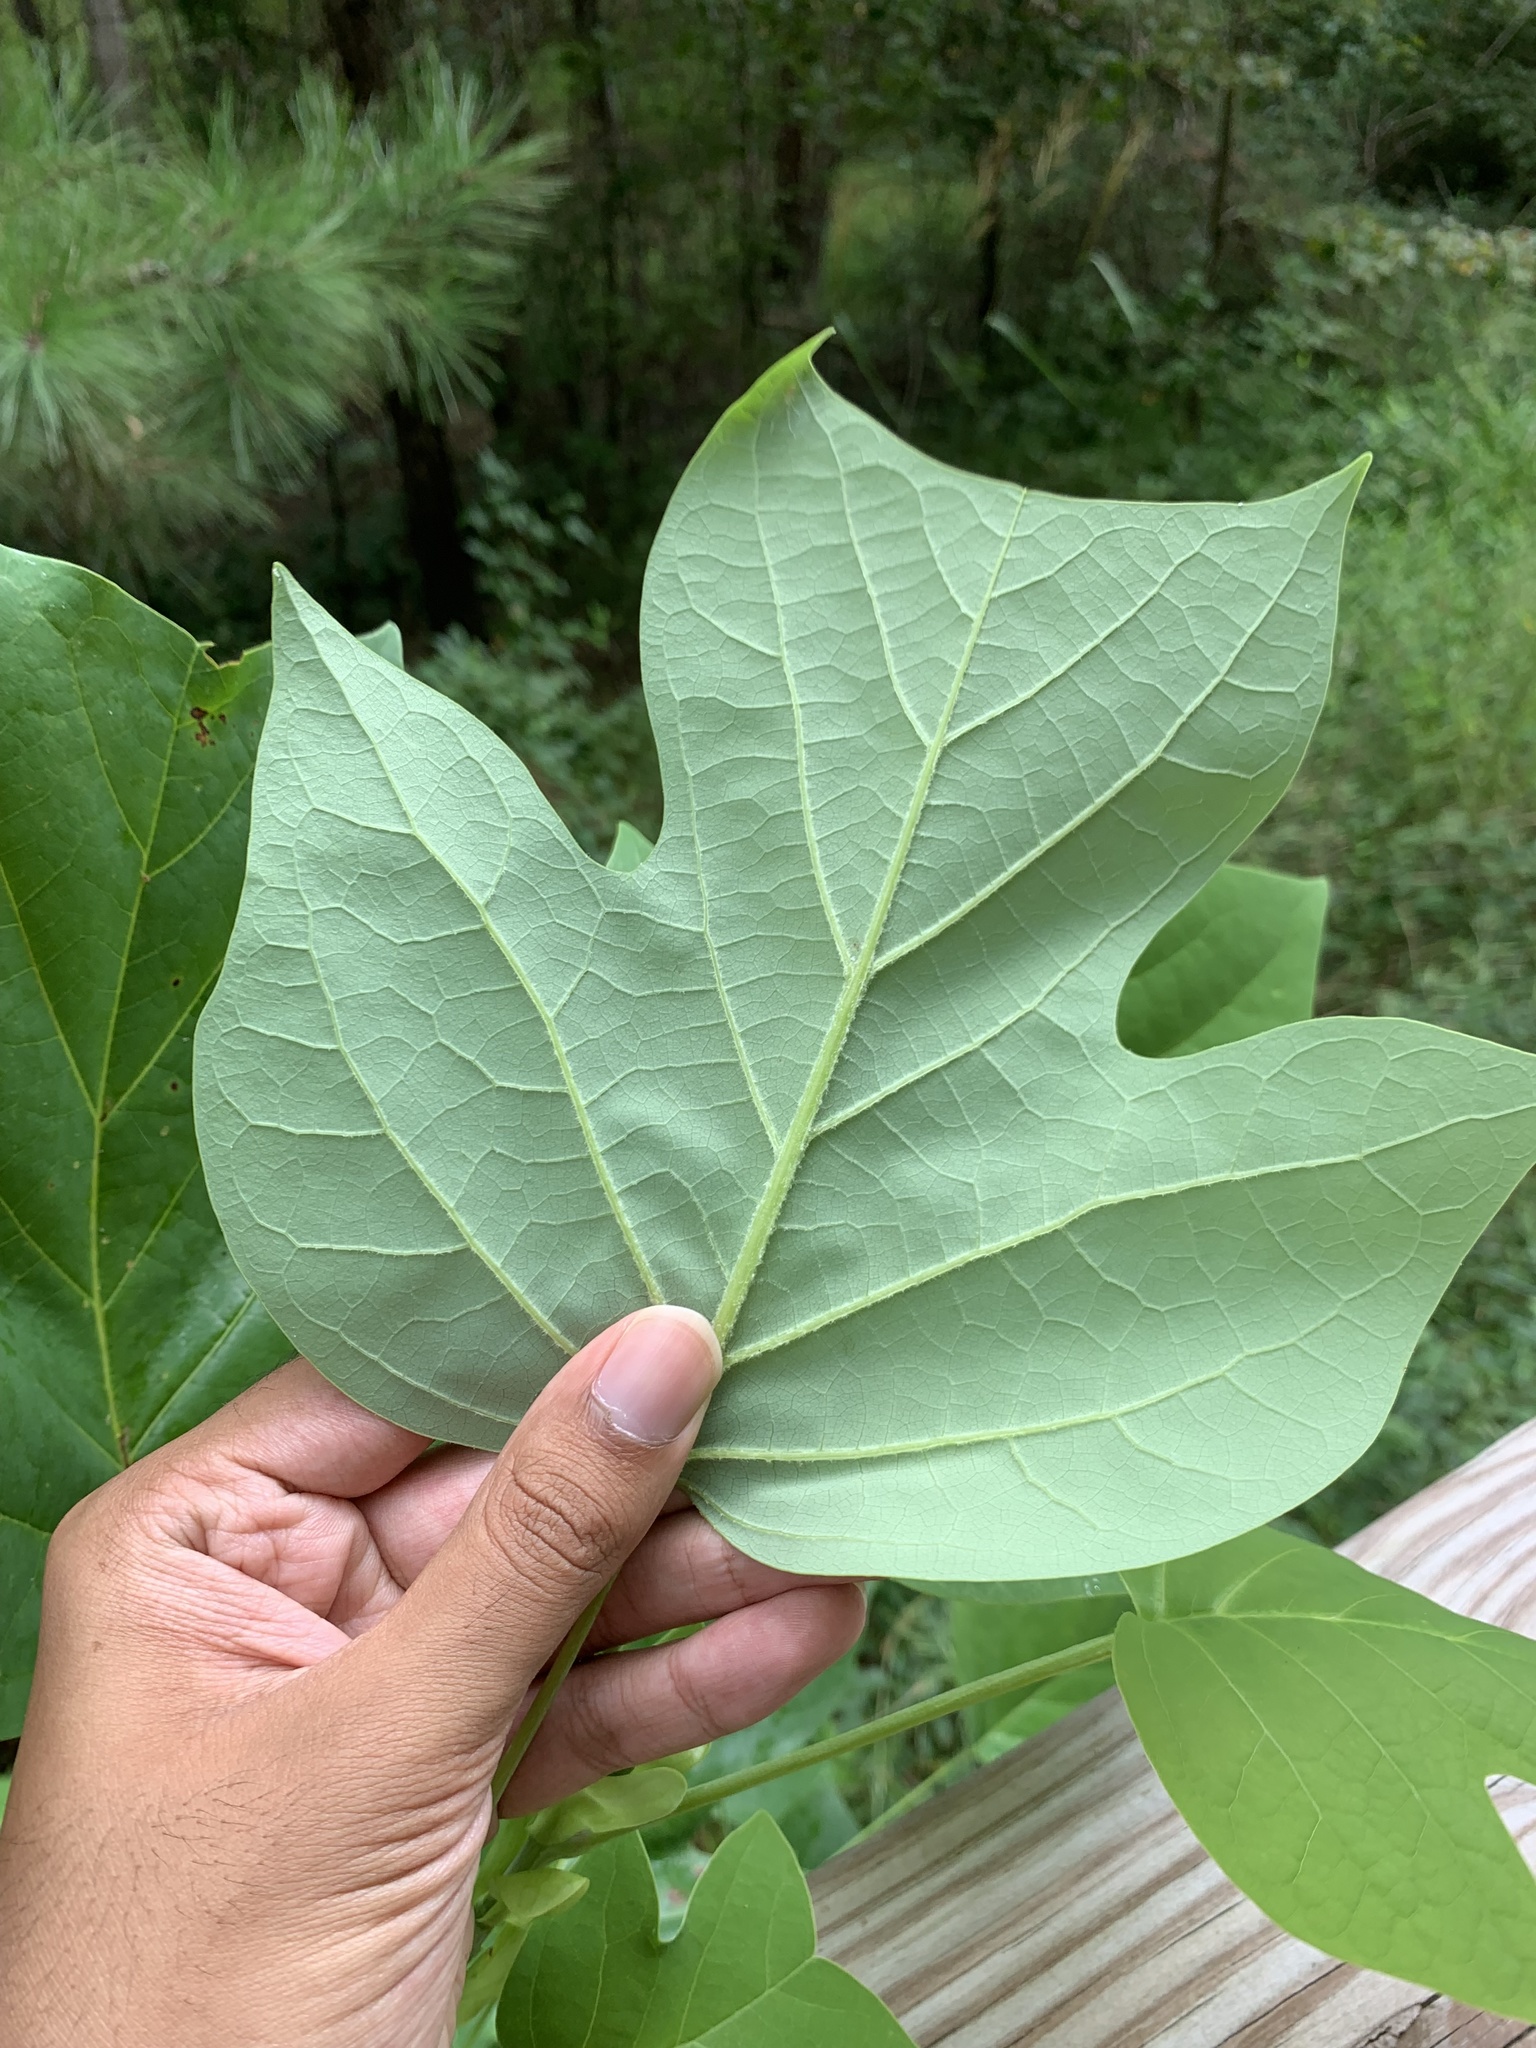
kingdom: Plantae
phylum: Tracheophyta
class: Magnoliopsida
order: Magnoliales
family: Magnoliaceae
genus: Liriodendron
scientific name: Liriodendron tulipifera
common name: Tulip tree
